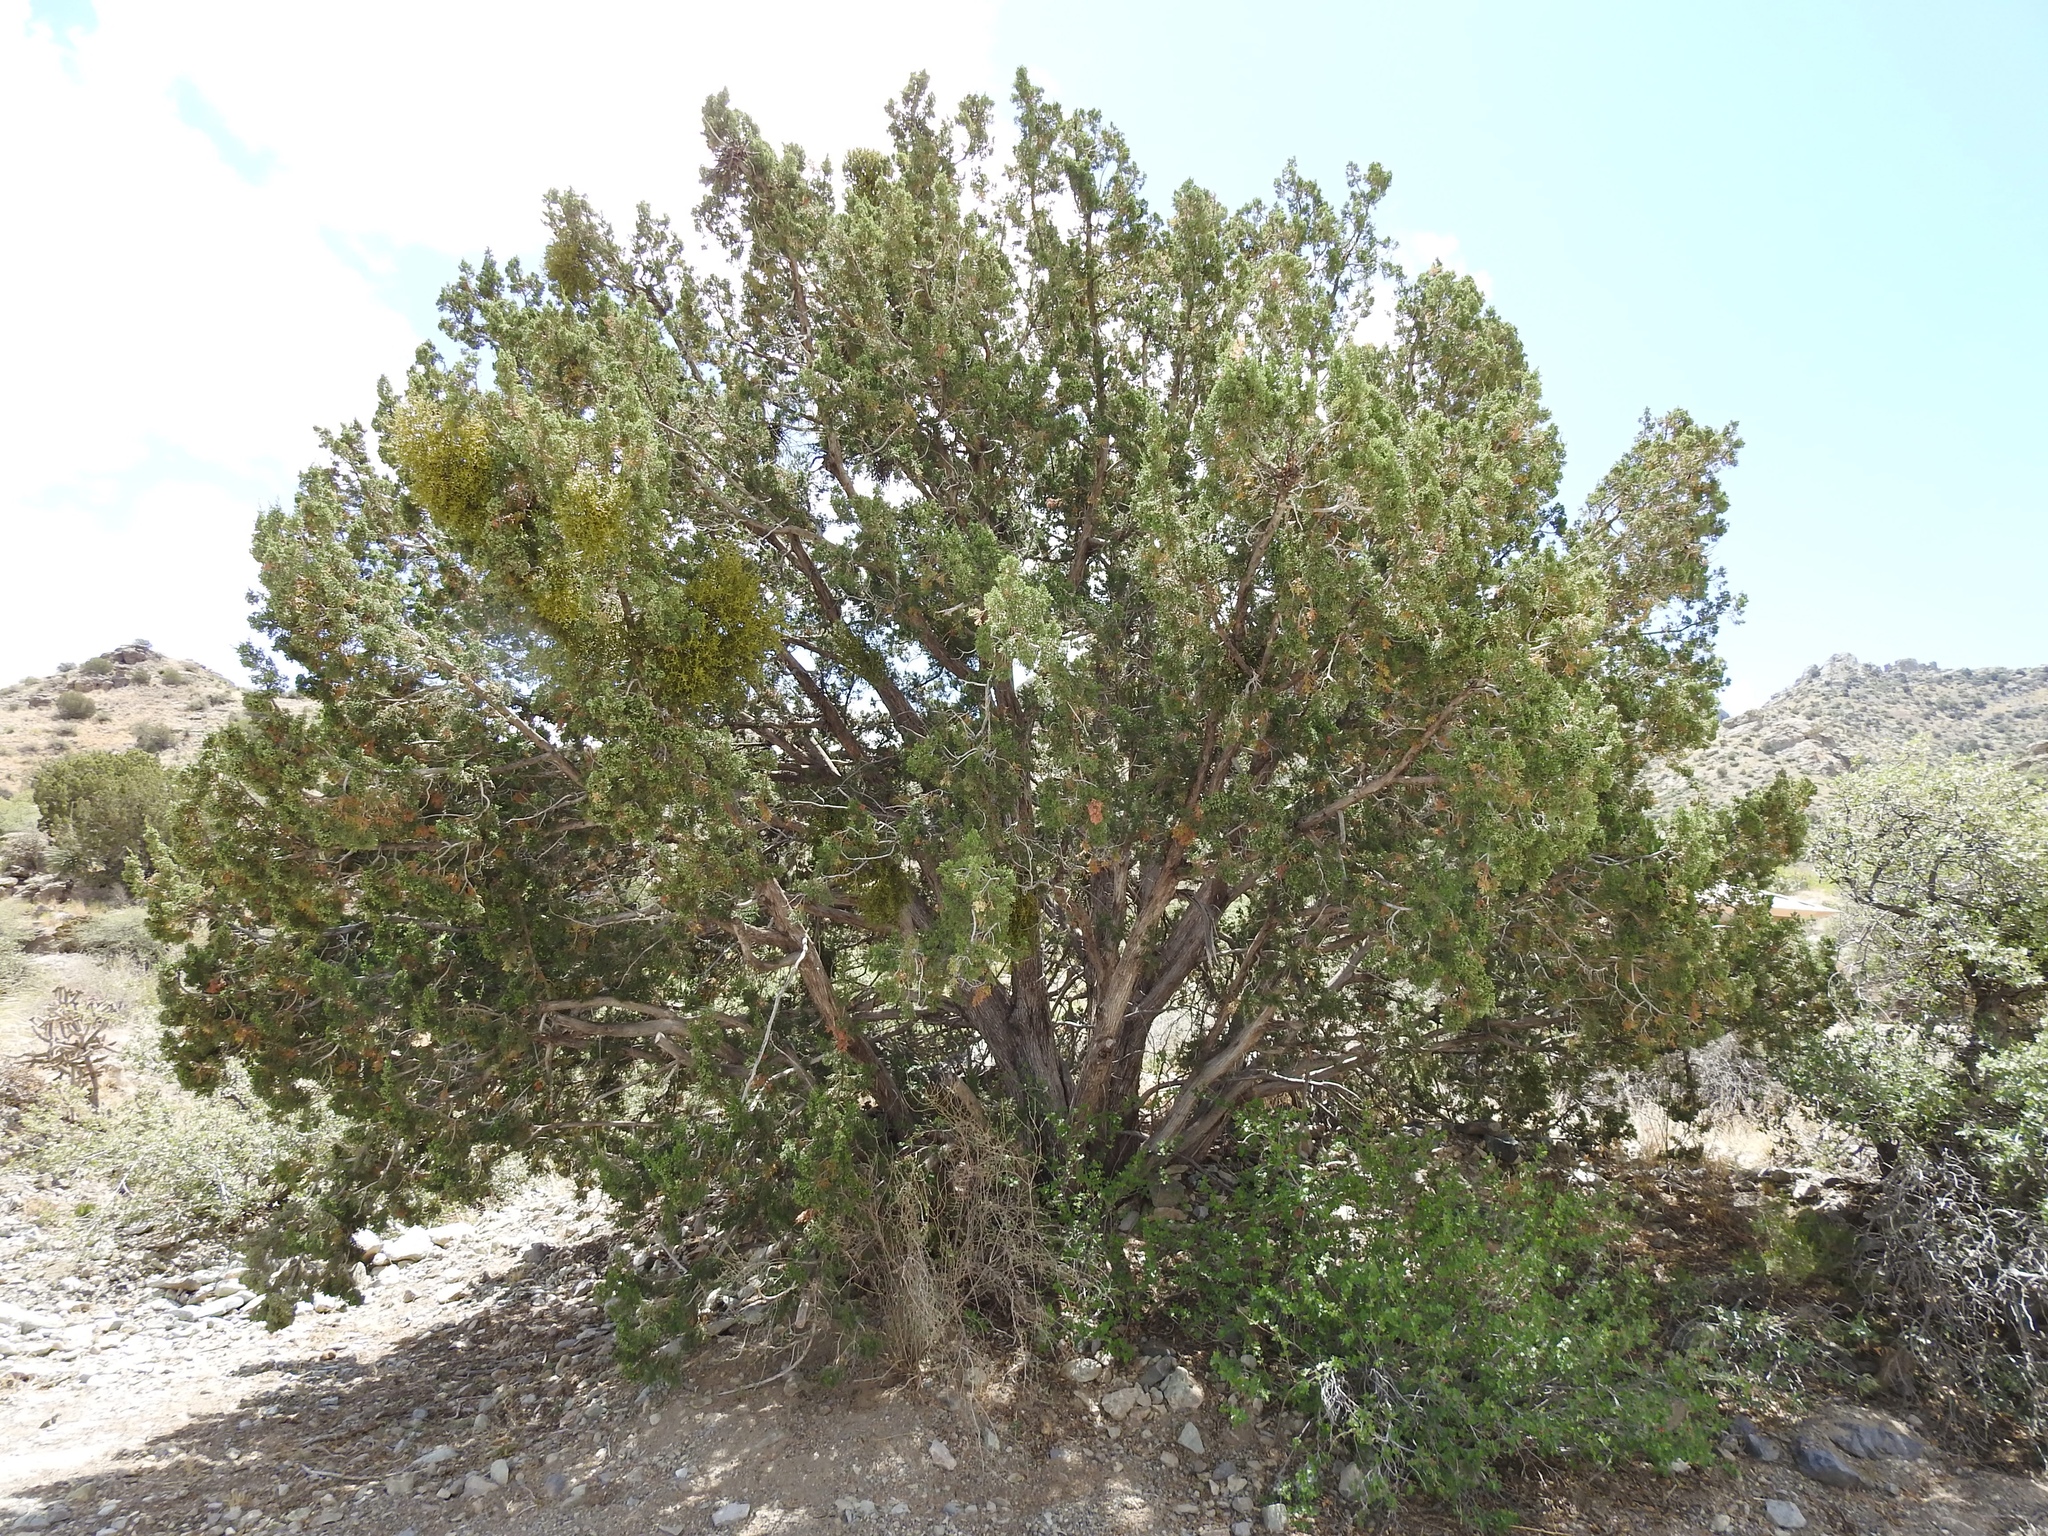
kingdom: Plantae
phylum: Tracheophyta
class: Pinopsida
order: Pinales
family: Cupressaceae
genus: Juniperus
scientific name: Juniperus monosperma
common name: One-seed juniper
